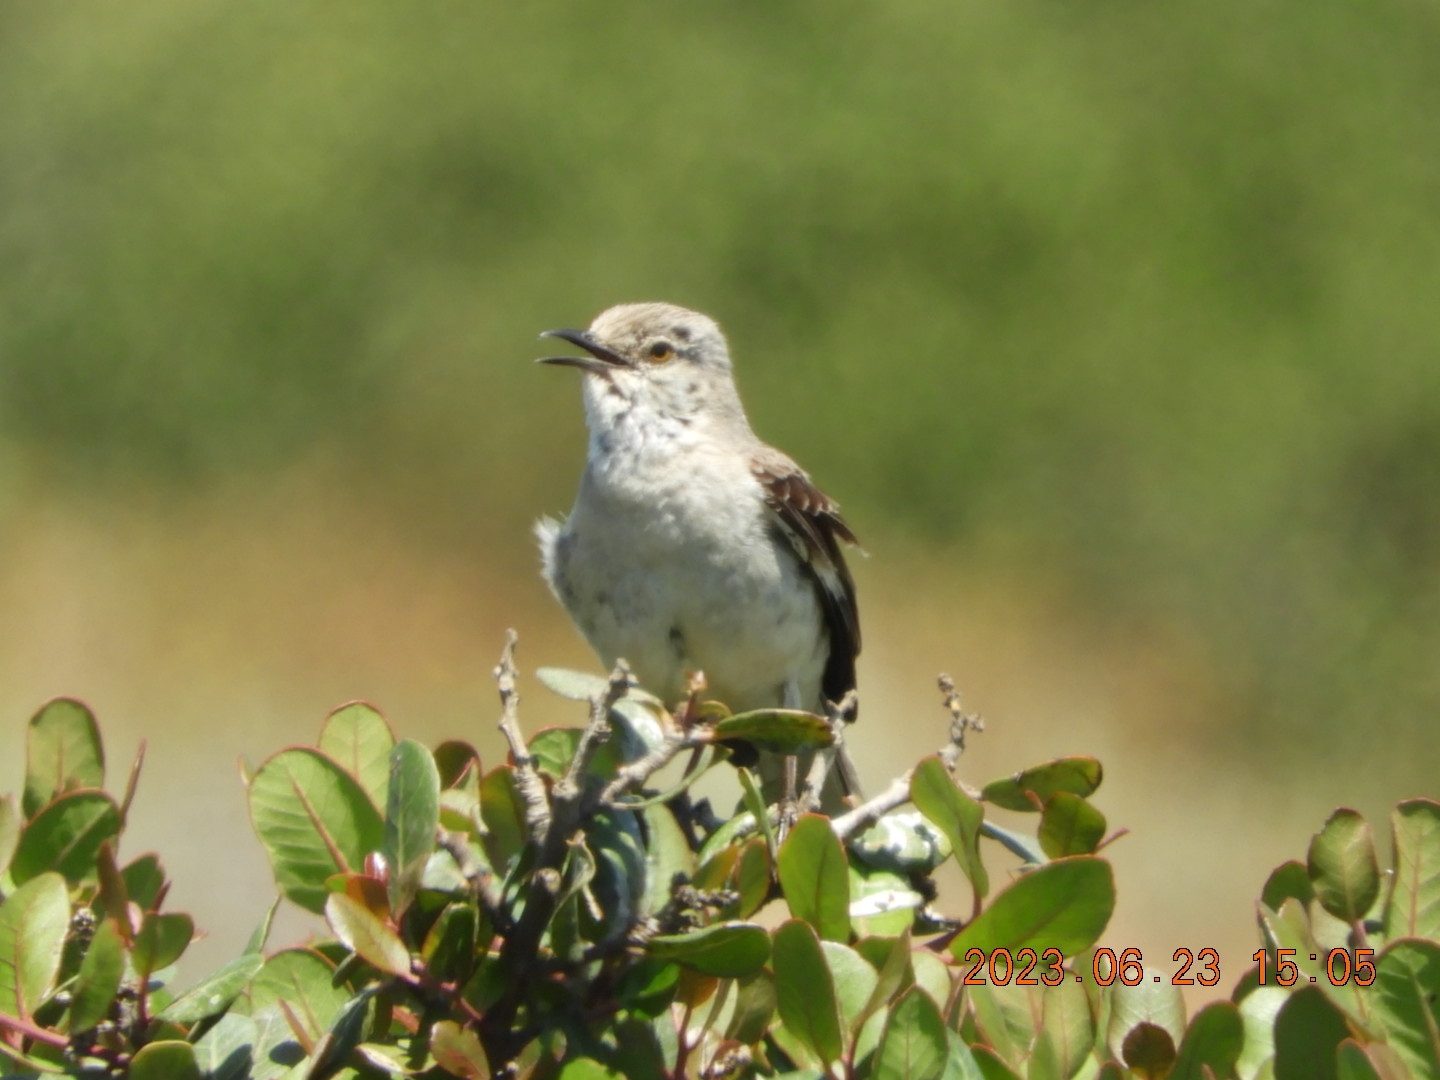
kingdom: Animalia
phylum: Chordata
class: Aves
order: Passeriformes
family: Mimidae
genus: Mimus
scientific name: Mimus polyglottos
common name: Northern mockingbird
